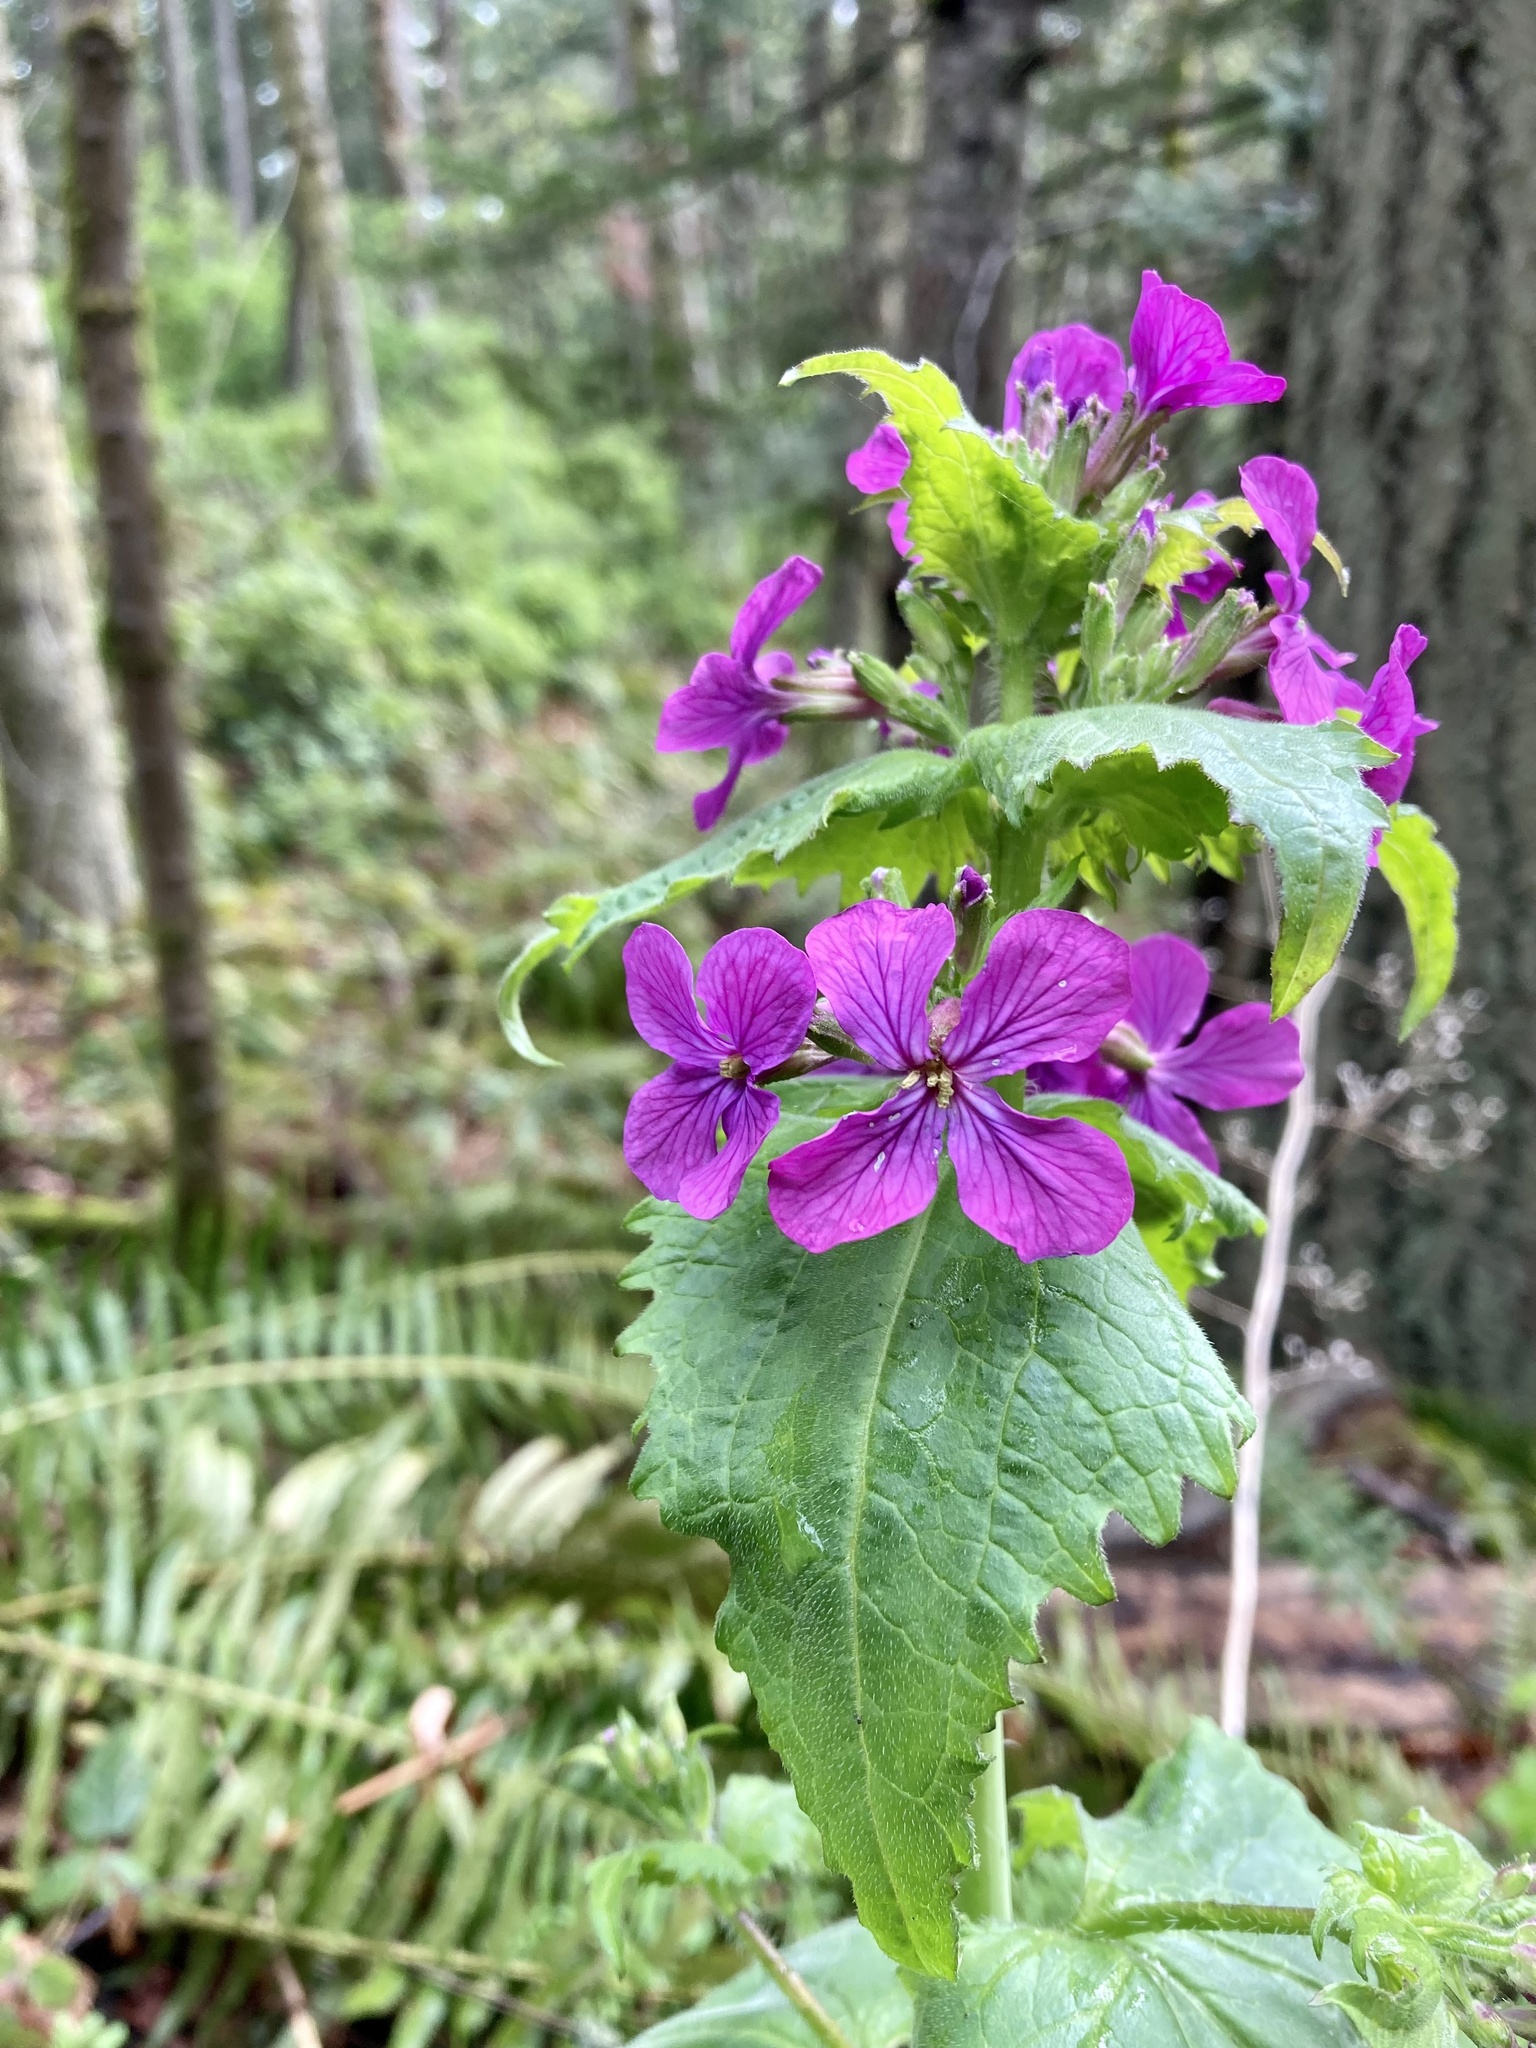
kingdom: Plantae
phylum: Tracheophyta
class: Magnoliopsida
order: Brassicales
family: Brassicaceae
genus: Lunaria
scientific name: Lunaria annua
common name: Honesty
